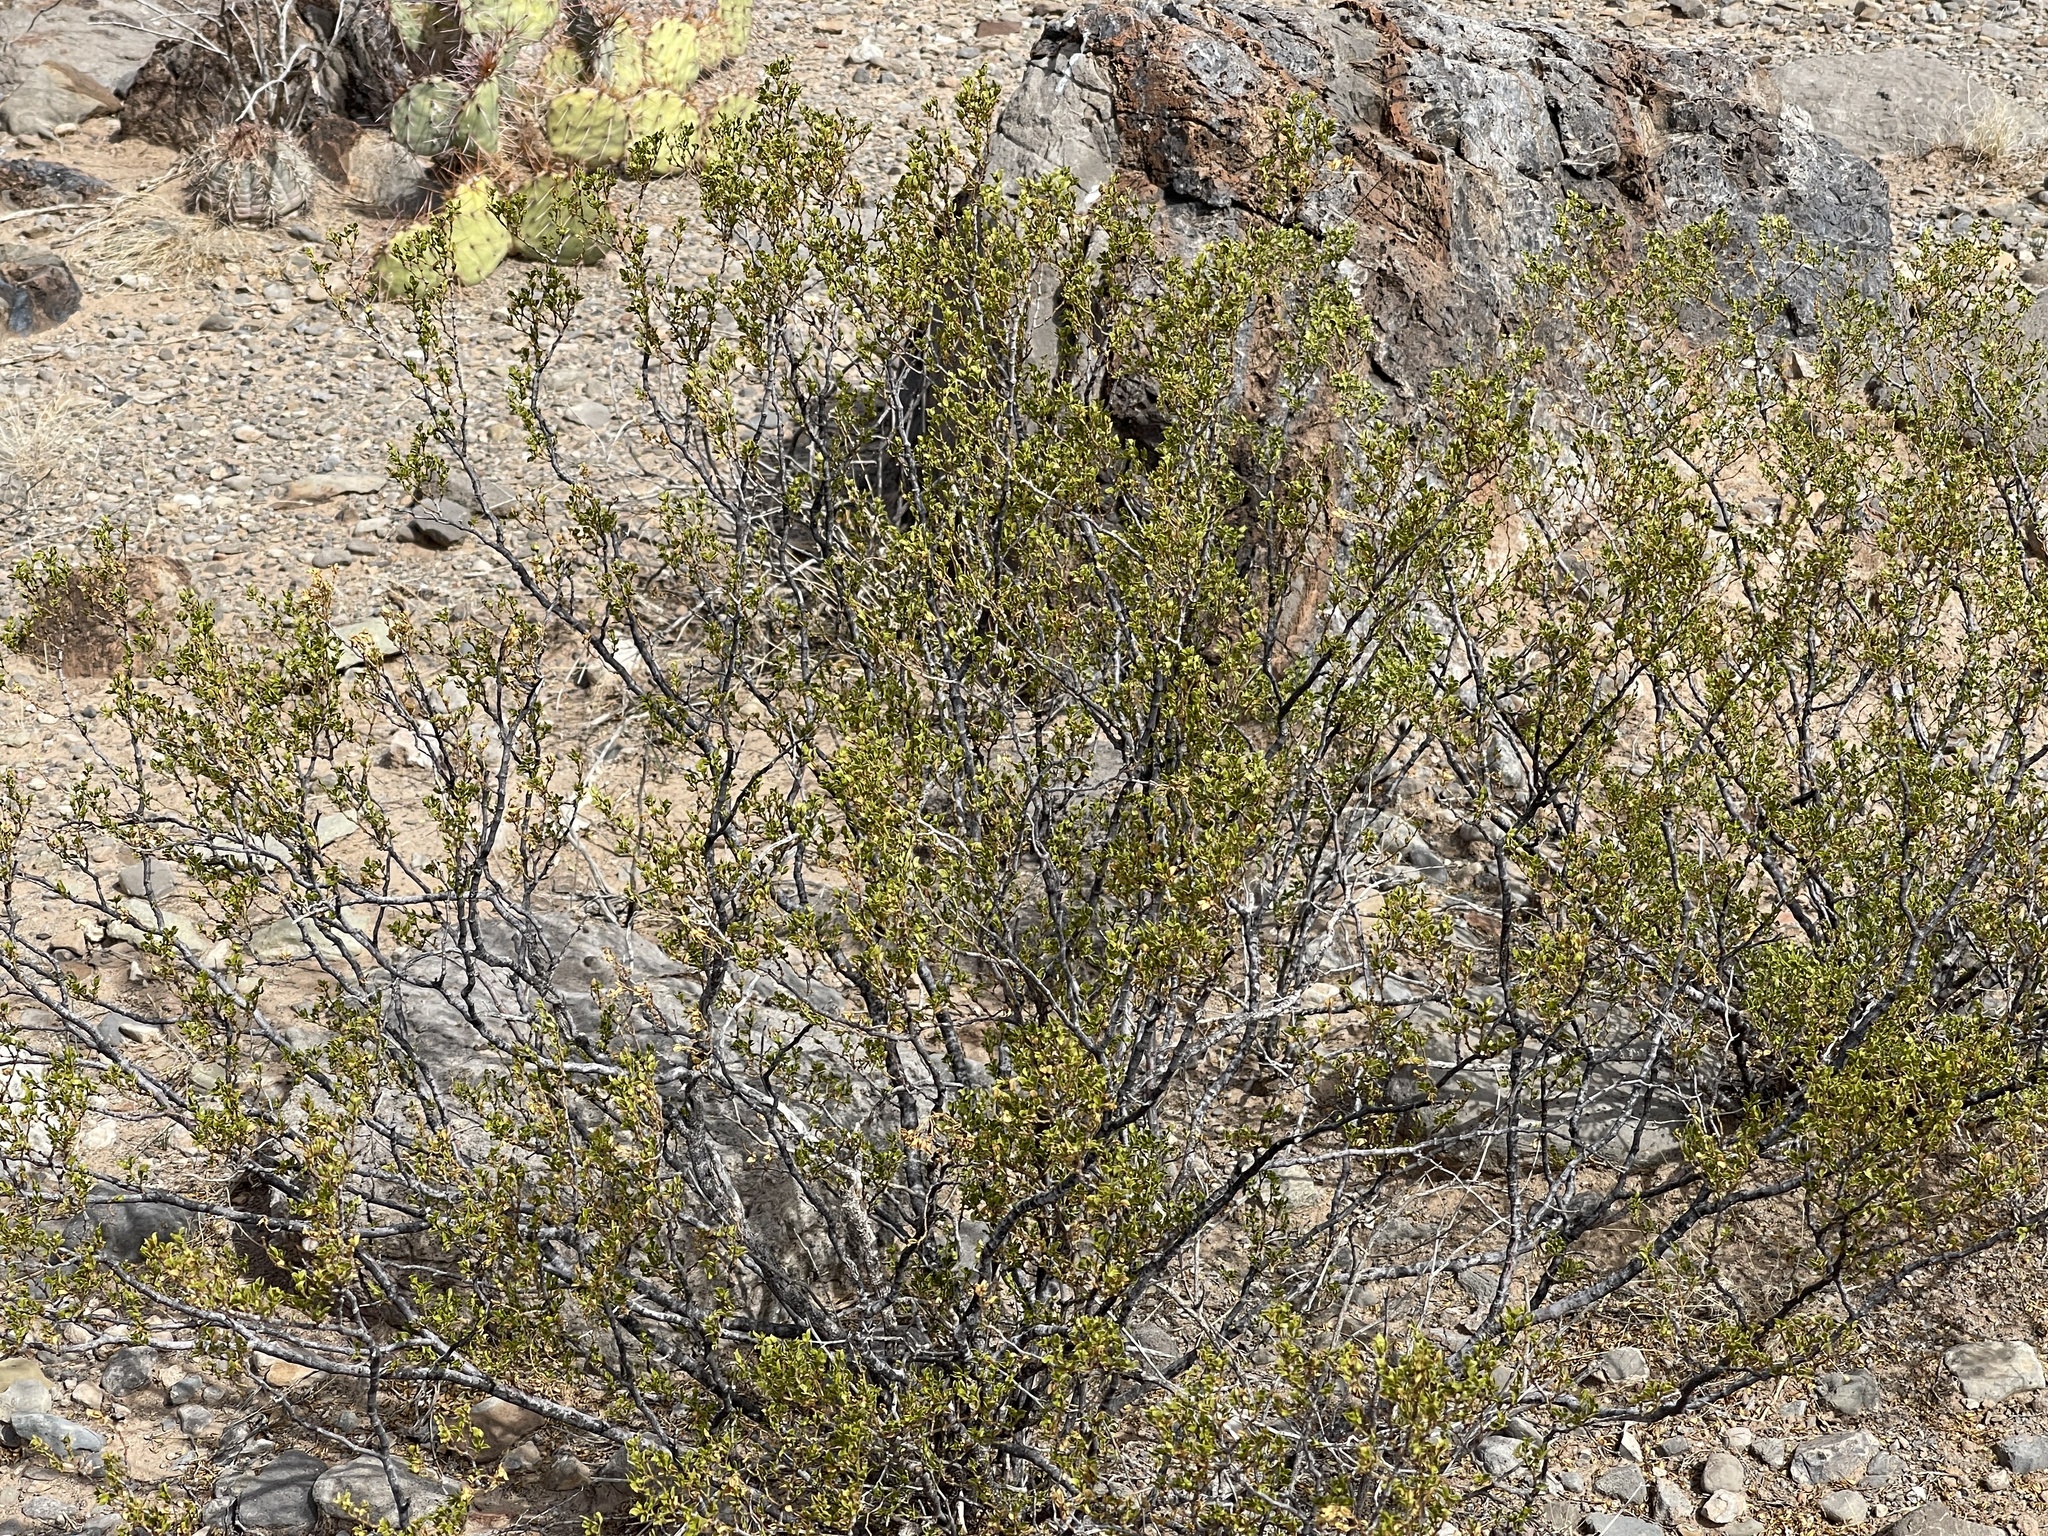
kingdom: Plantae
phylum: Tracheophyta
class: Magnoliopsida
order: Zygophyllales
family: Zygophyllaceae
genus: Larrea
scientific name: Larrea tridentata
